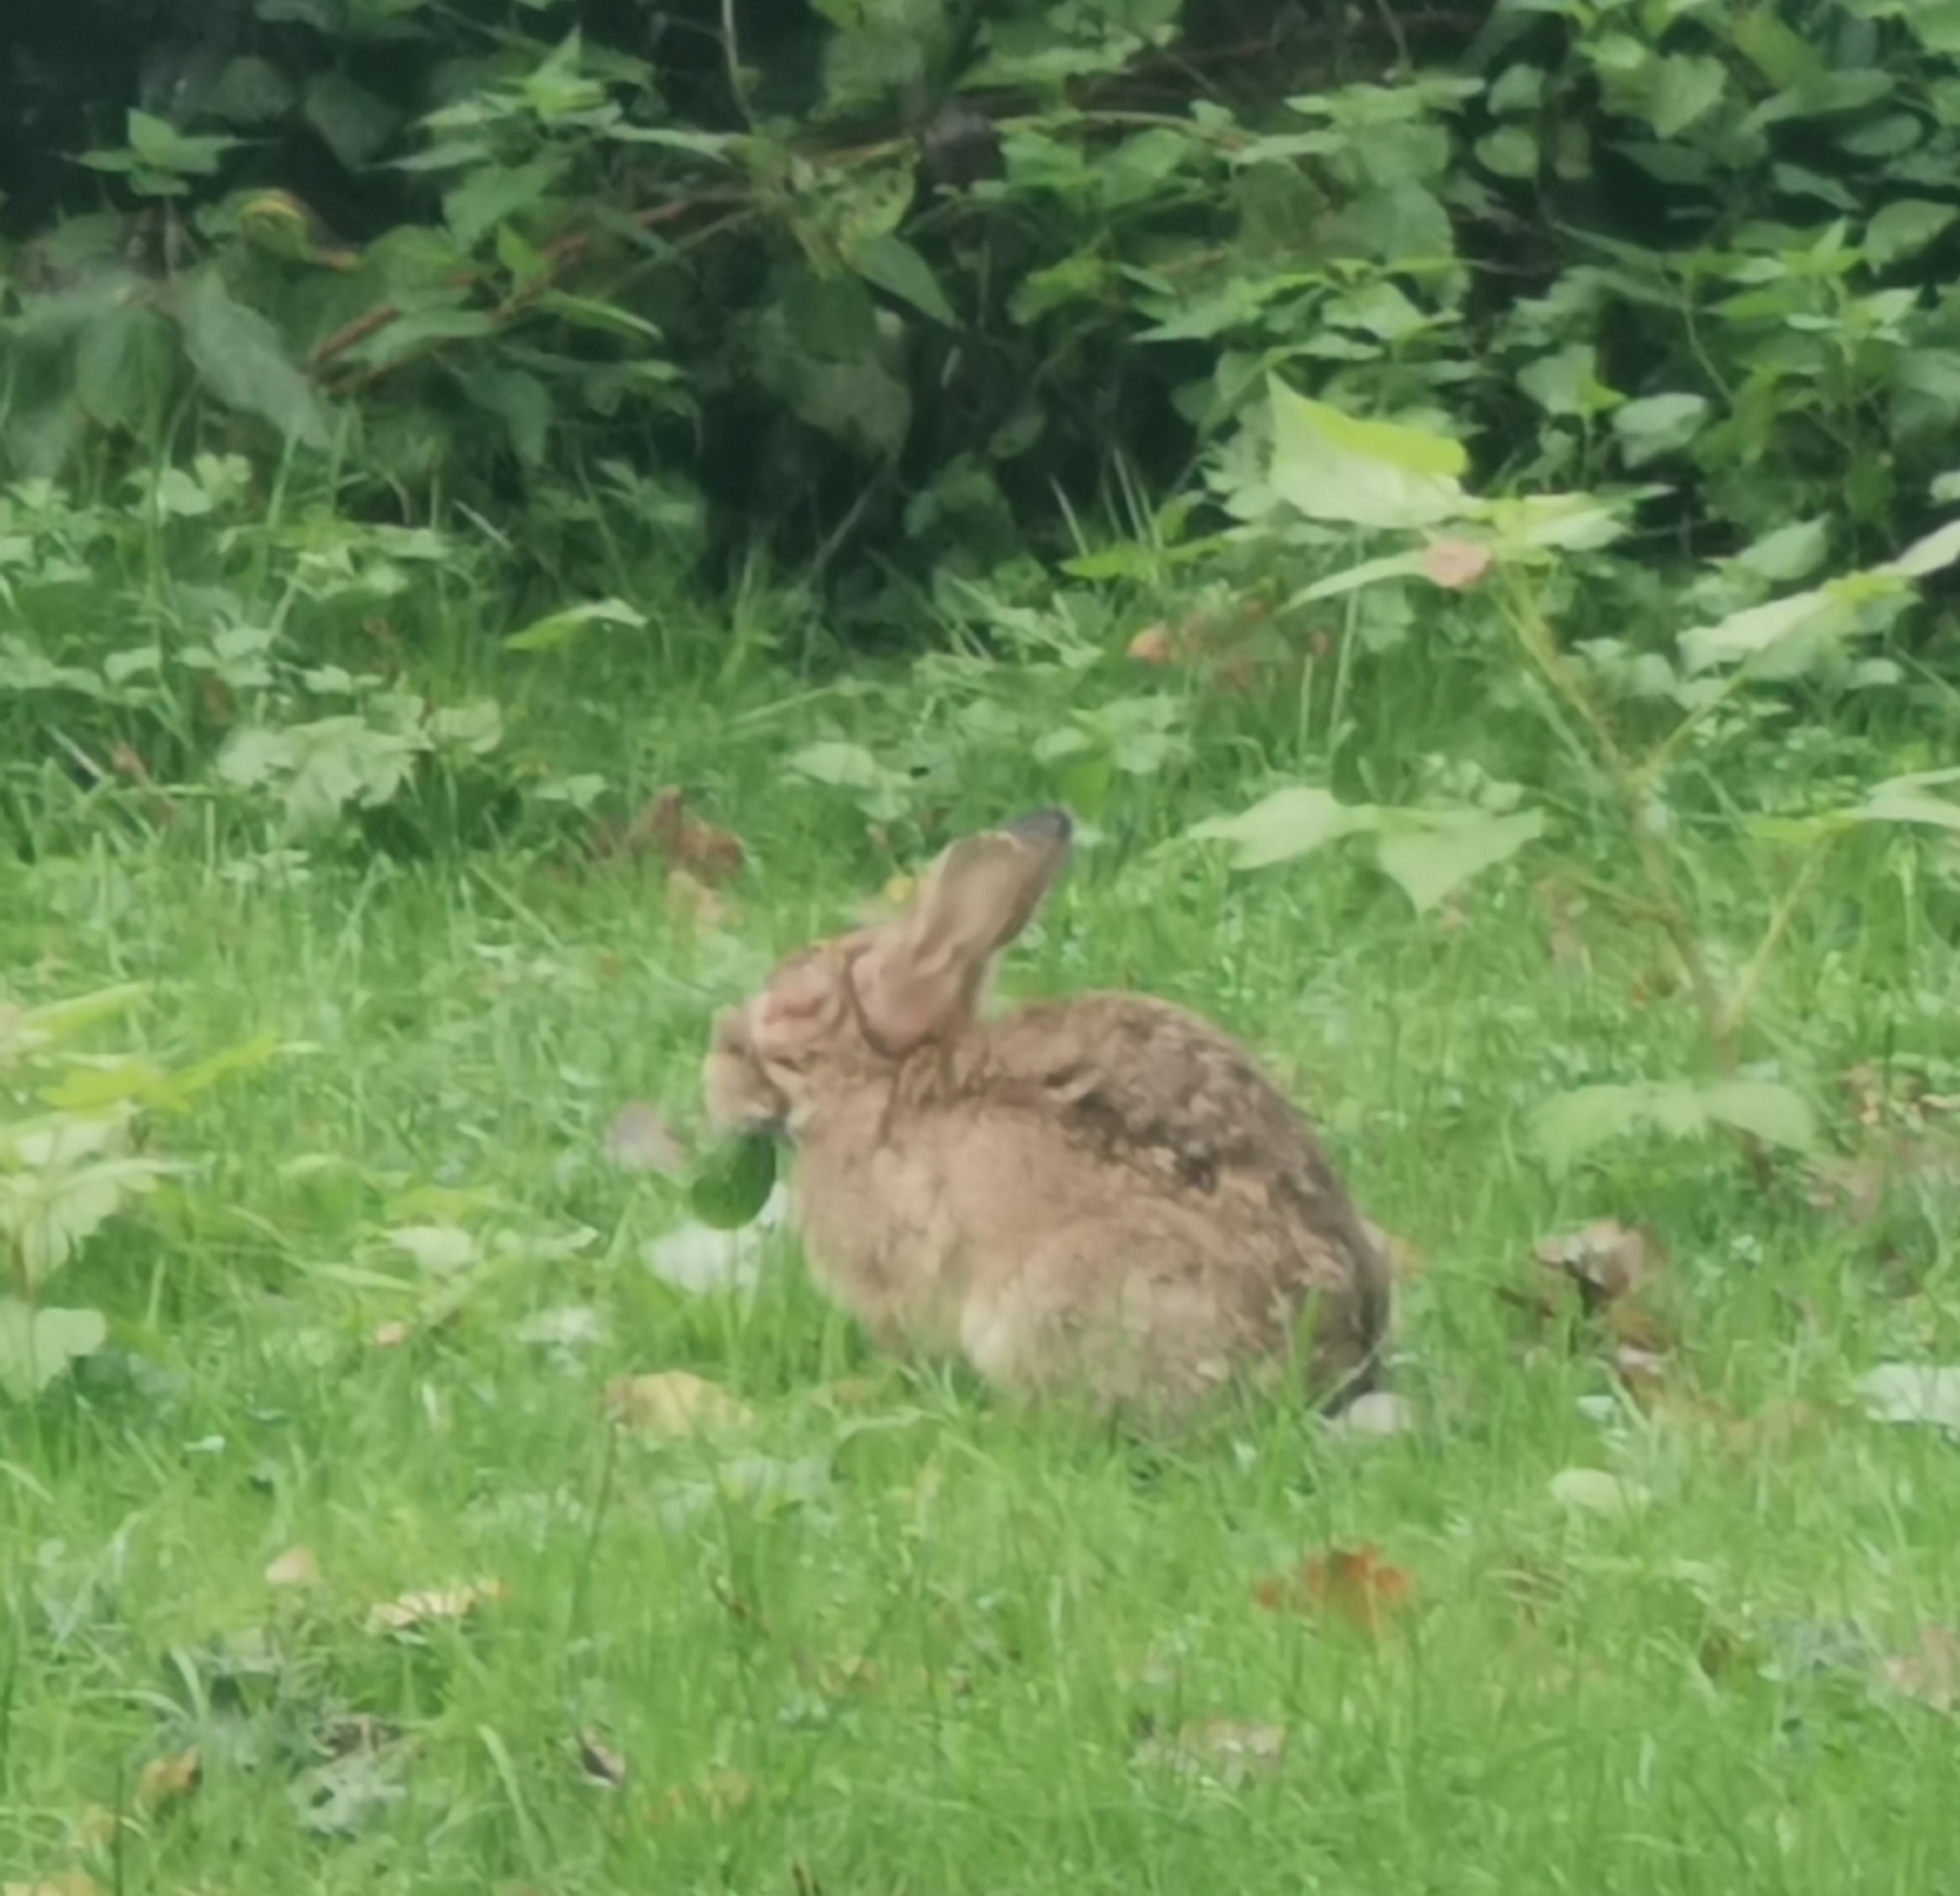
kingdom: Animalia
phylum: Chordata
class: Mammalia
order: Lagomorpha
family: Leporidae
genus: Oryctolagus
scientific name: Oryctolagus cuniculus
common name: European rabbit
